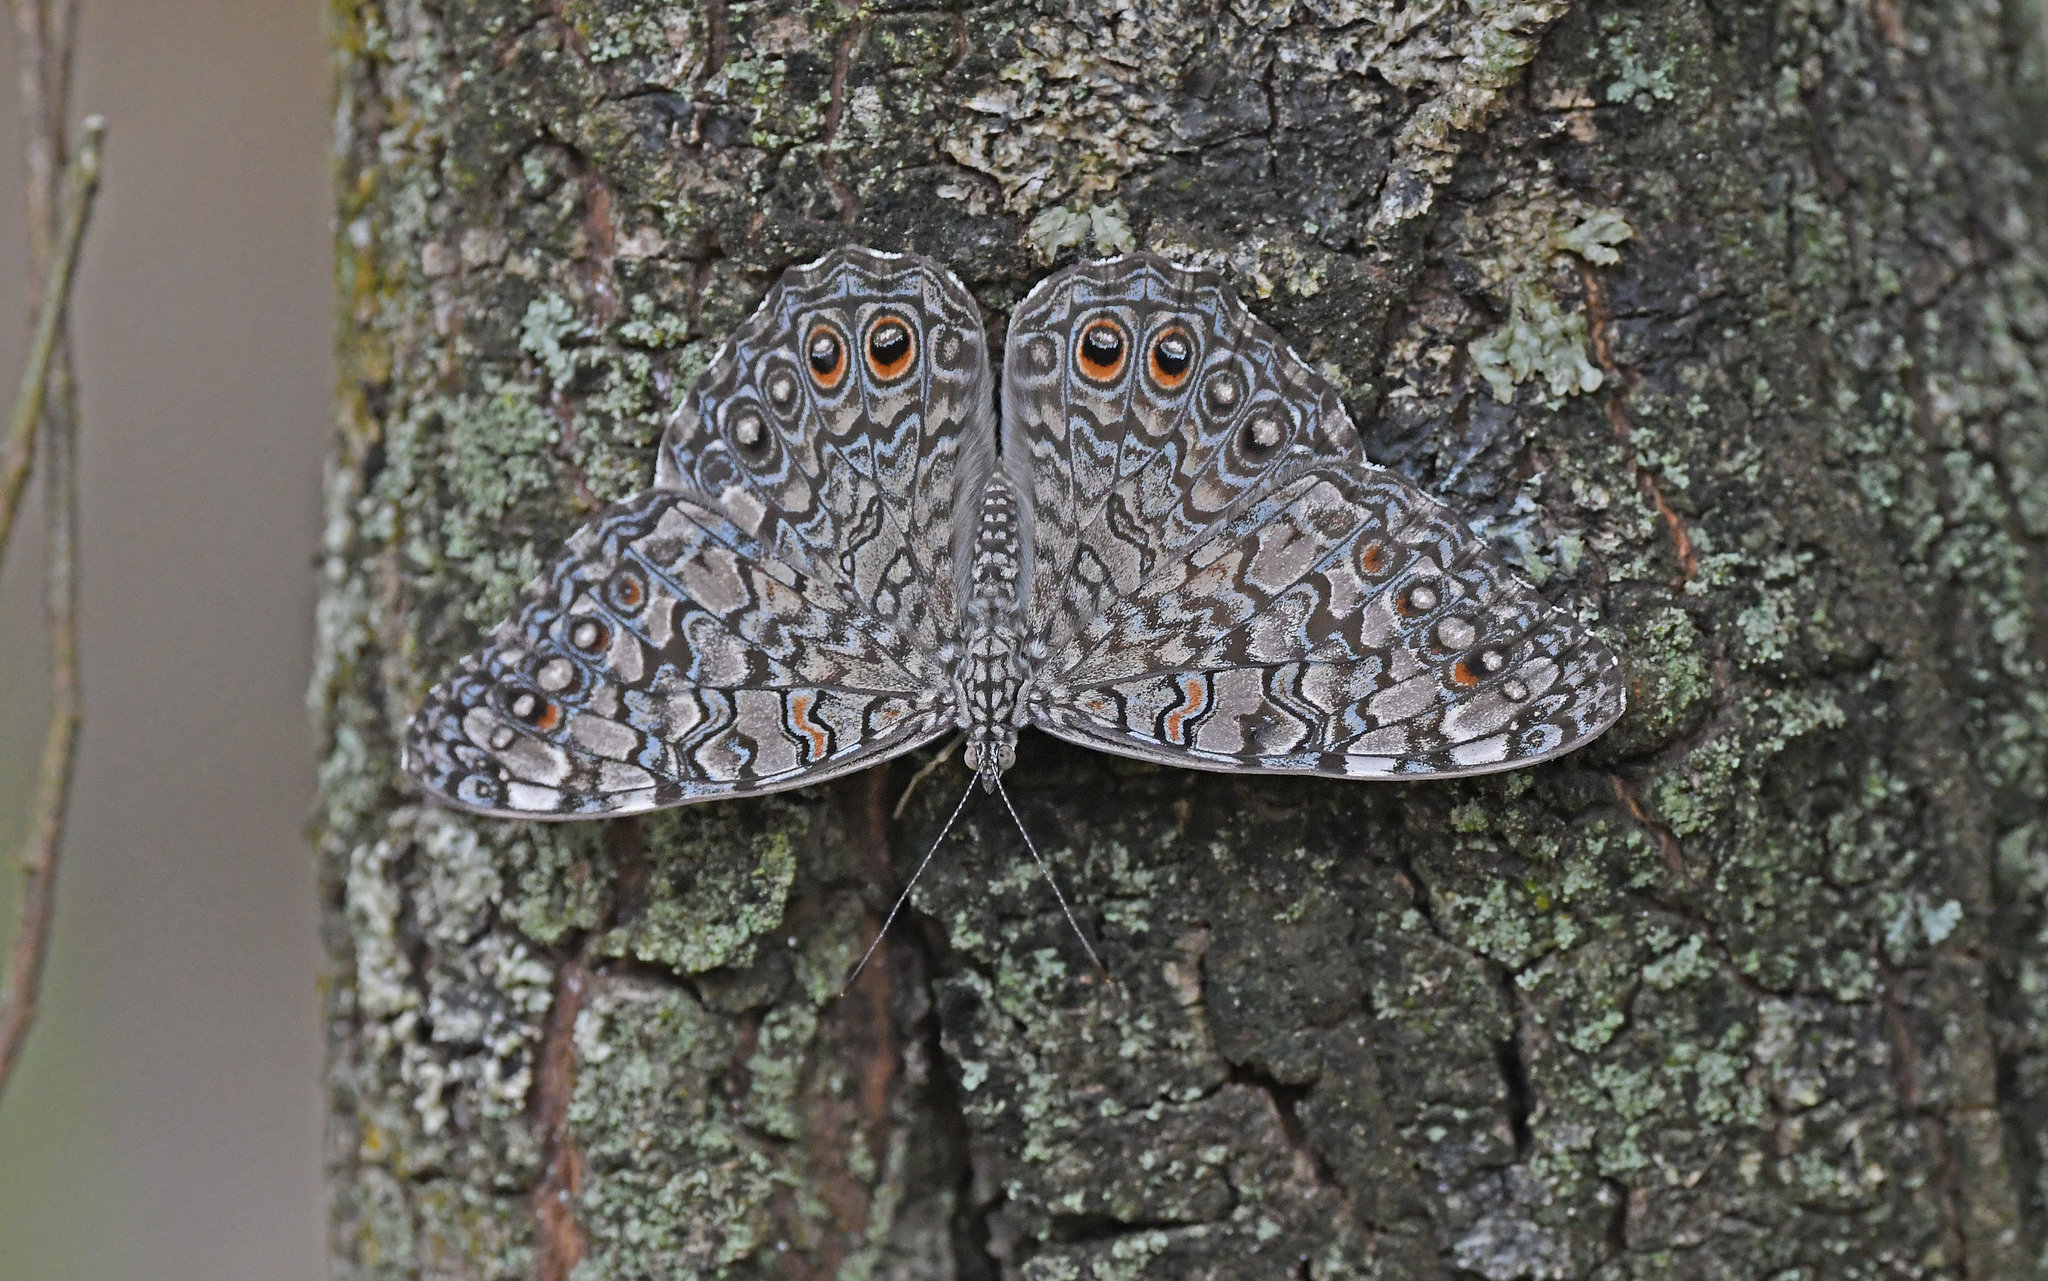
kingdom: Animalia
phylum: Arthropoda
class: Insecta
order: Lepidoptera
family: Nymphalidae
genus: Hamadryas
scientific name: Hamadryas februa
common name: Gray cracker
